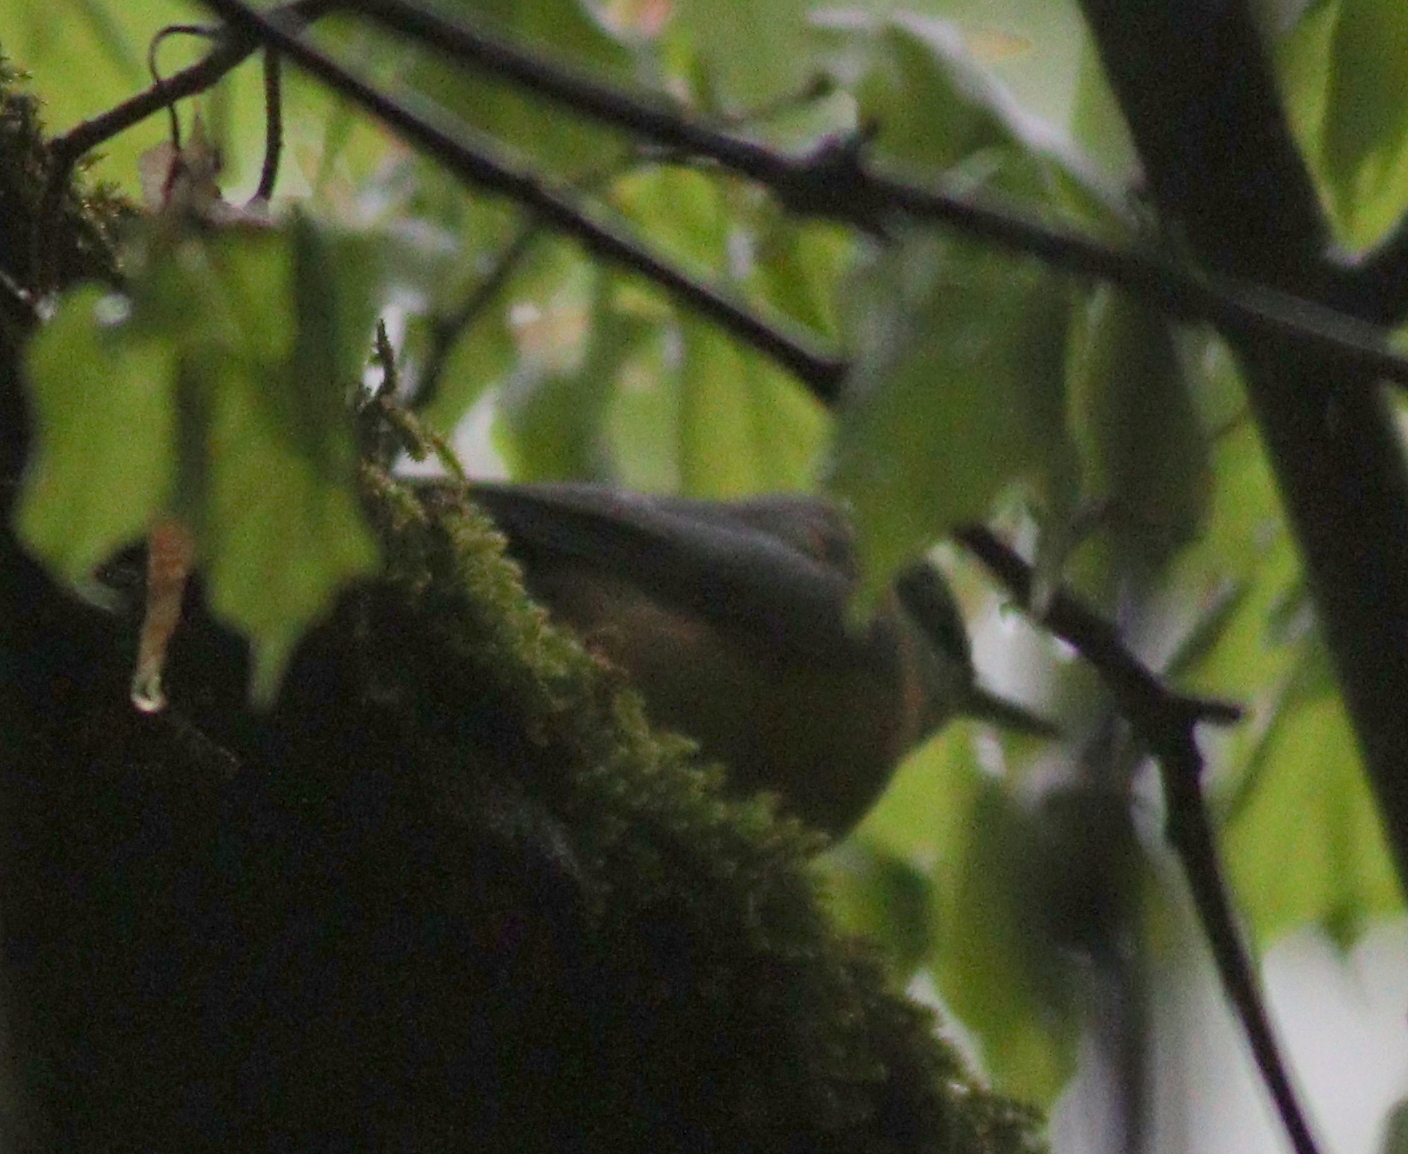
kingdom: Animalia
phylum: Chordata
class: Aves
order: Passeriformes
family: Sittidae
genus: Sitta
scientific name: Sitta europaea
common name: Eurasian nuthatch
